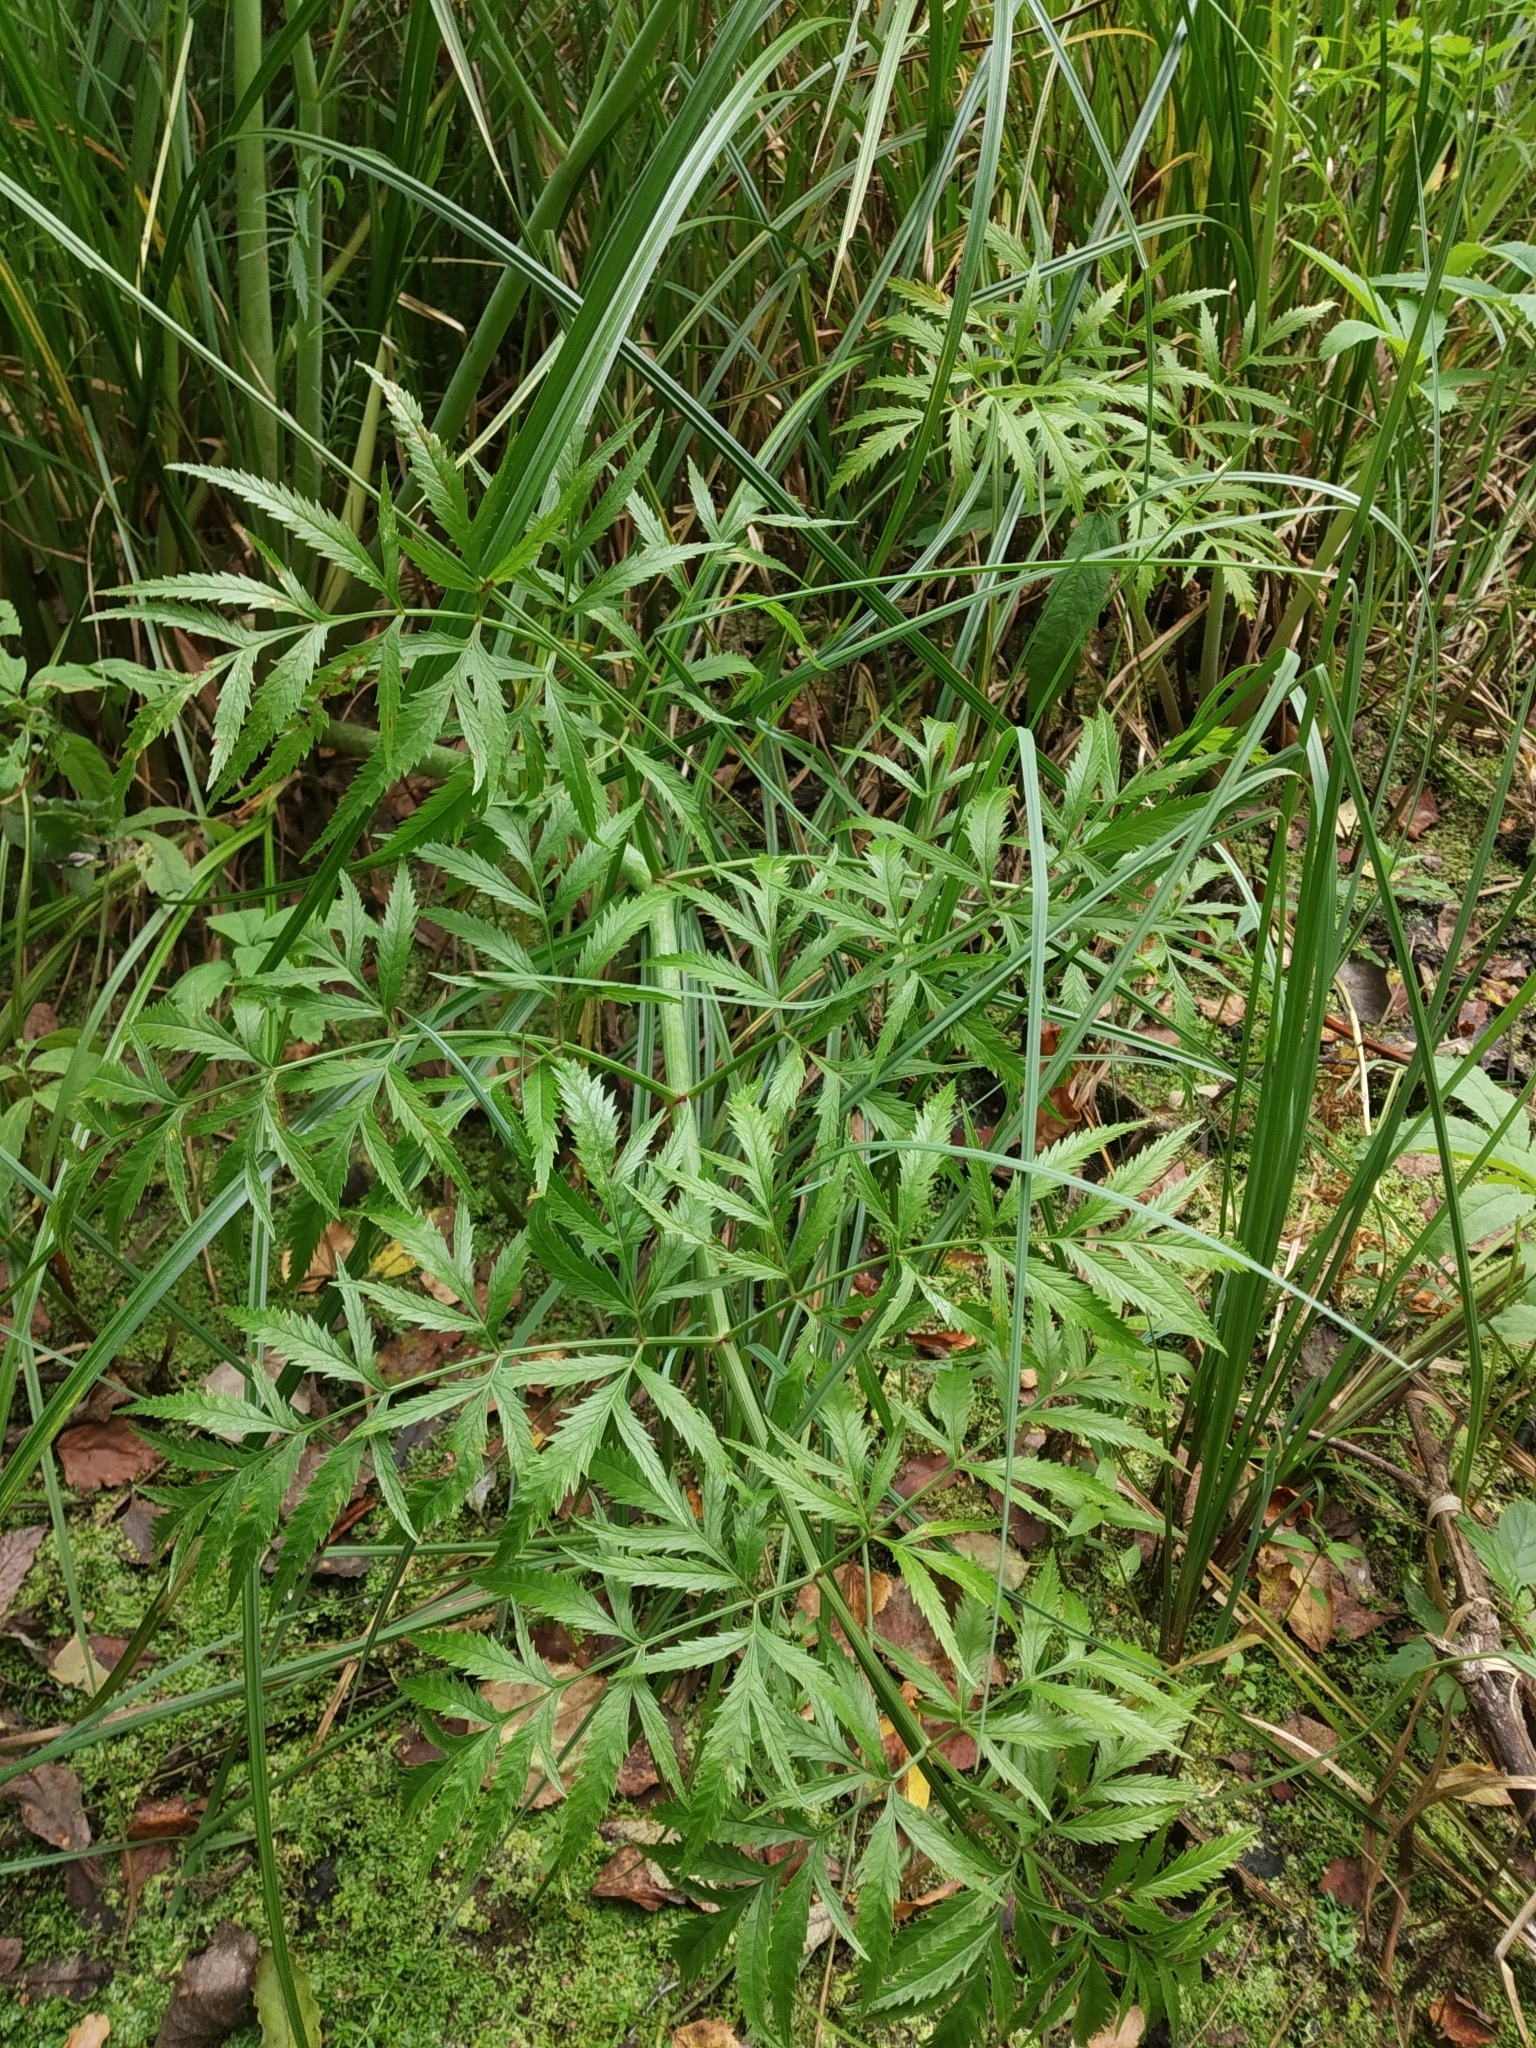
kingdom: Plantae
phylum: Tracheophyta
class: Magnoliopsida
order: Apiales
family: Apiaceae
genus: Cicuta
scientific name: Cicuta virosa
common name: Cowbane
